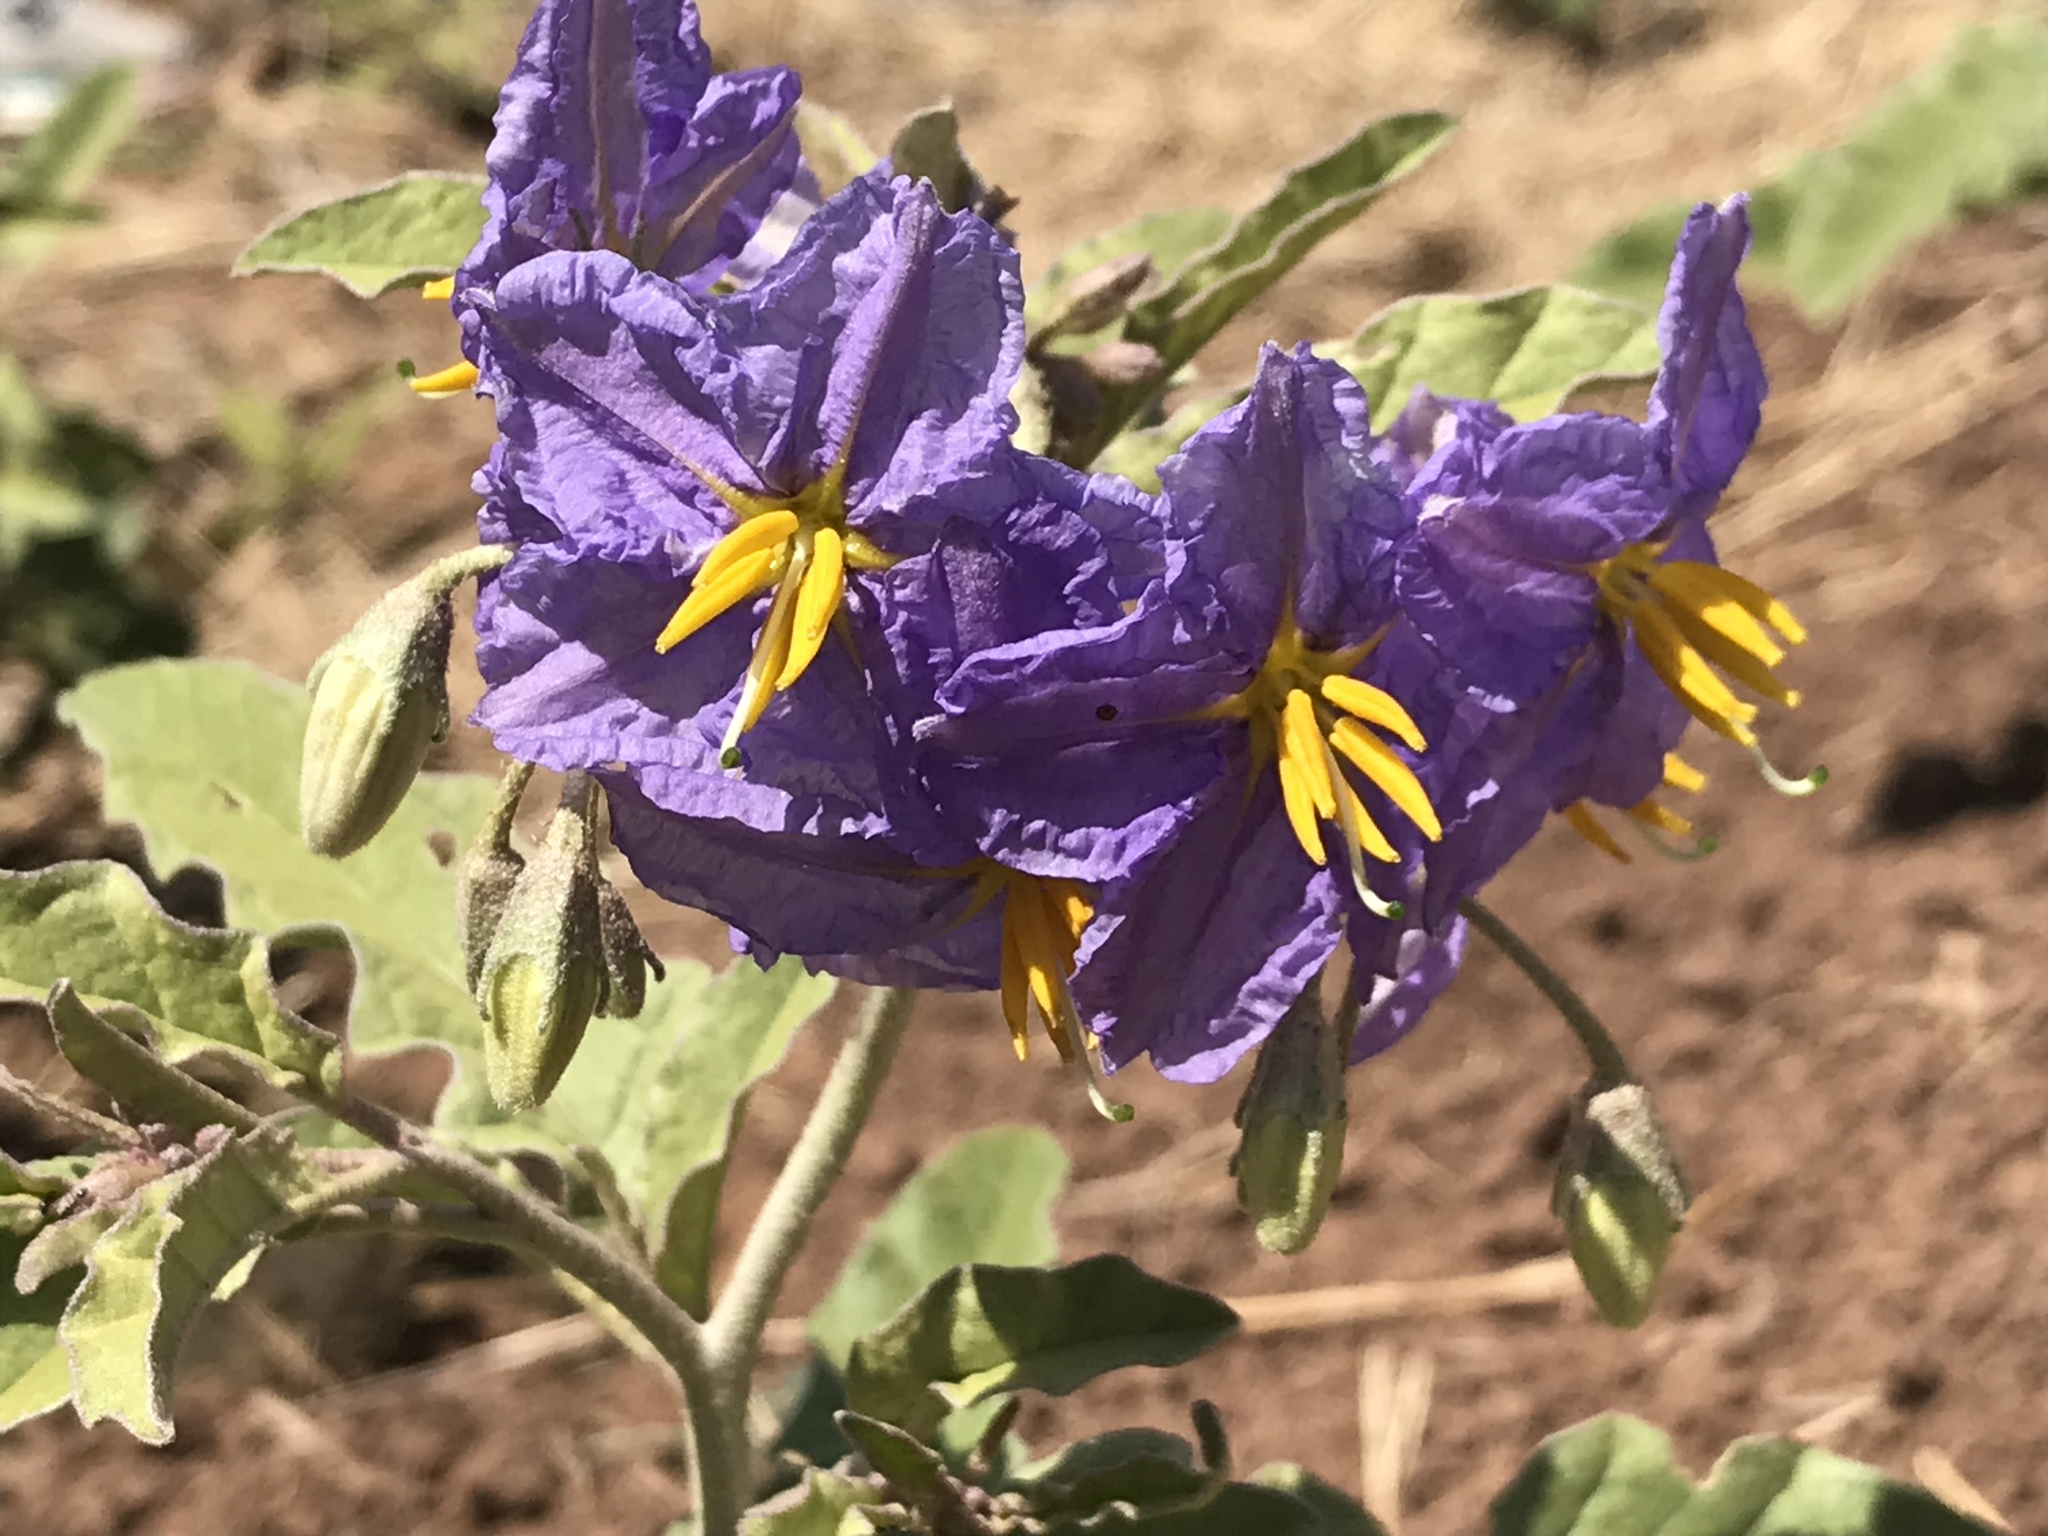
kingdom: Plantae
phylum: Tracheophyta
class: Magnoliopsida
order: Solanales
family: Solanaceae
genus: Solanum
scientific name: Solanum elaeagnifolium
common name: Silverleaf nightshade
